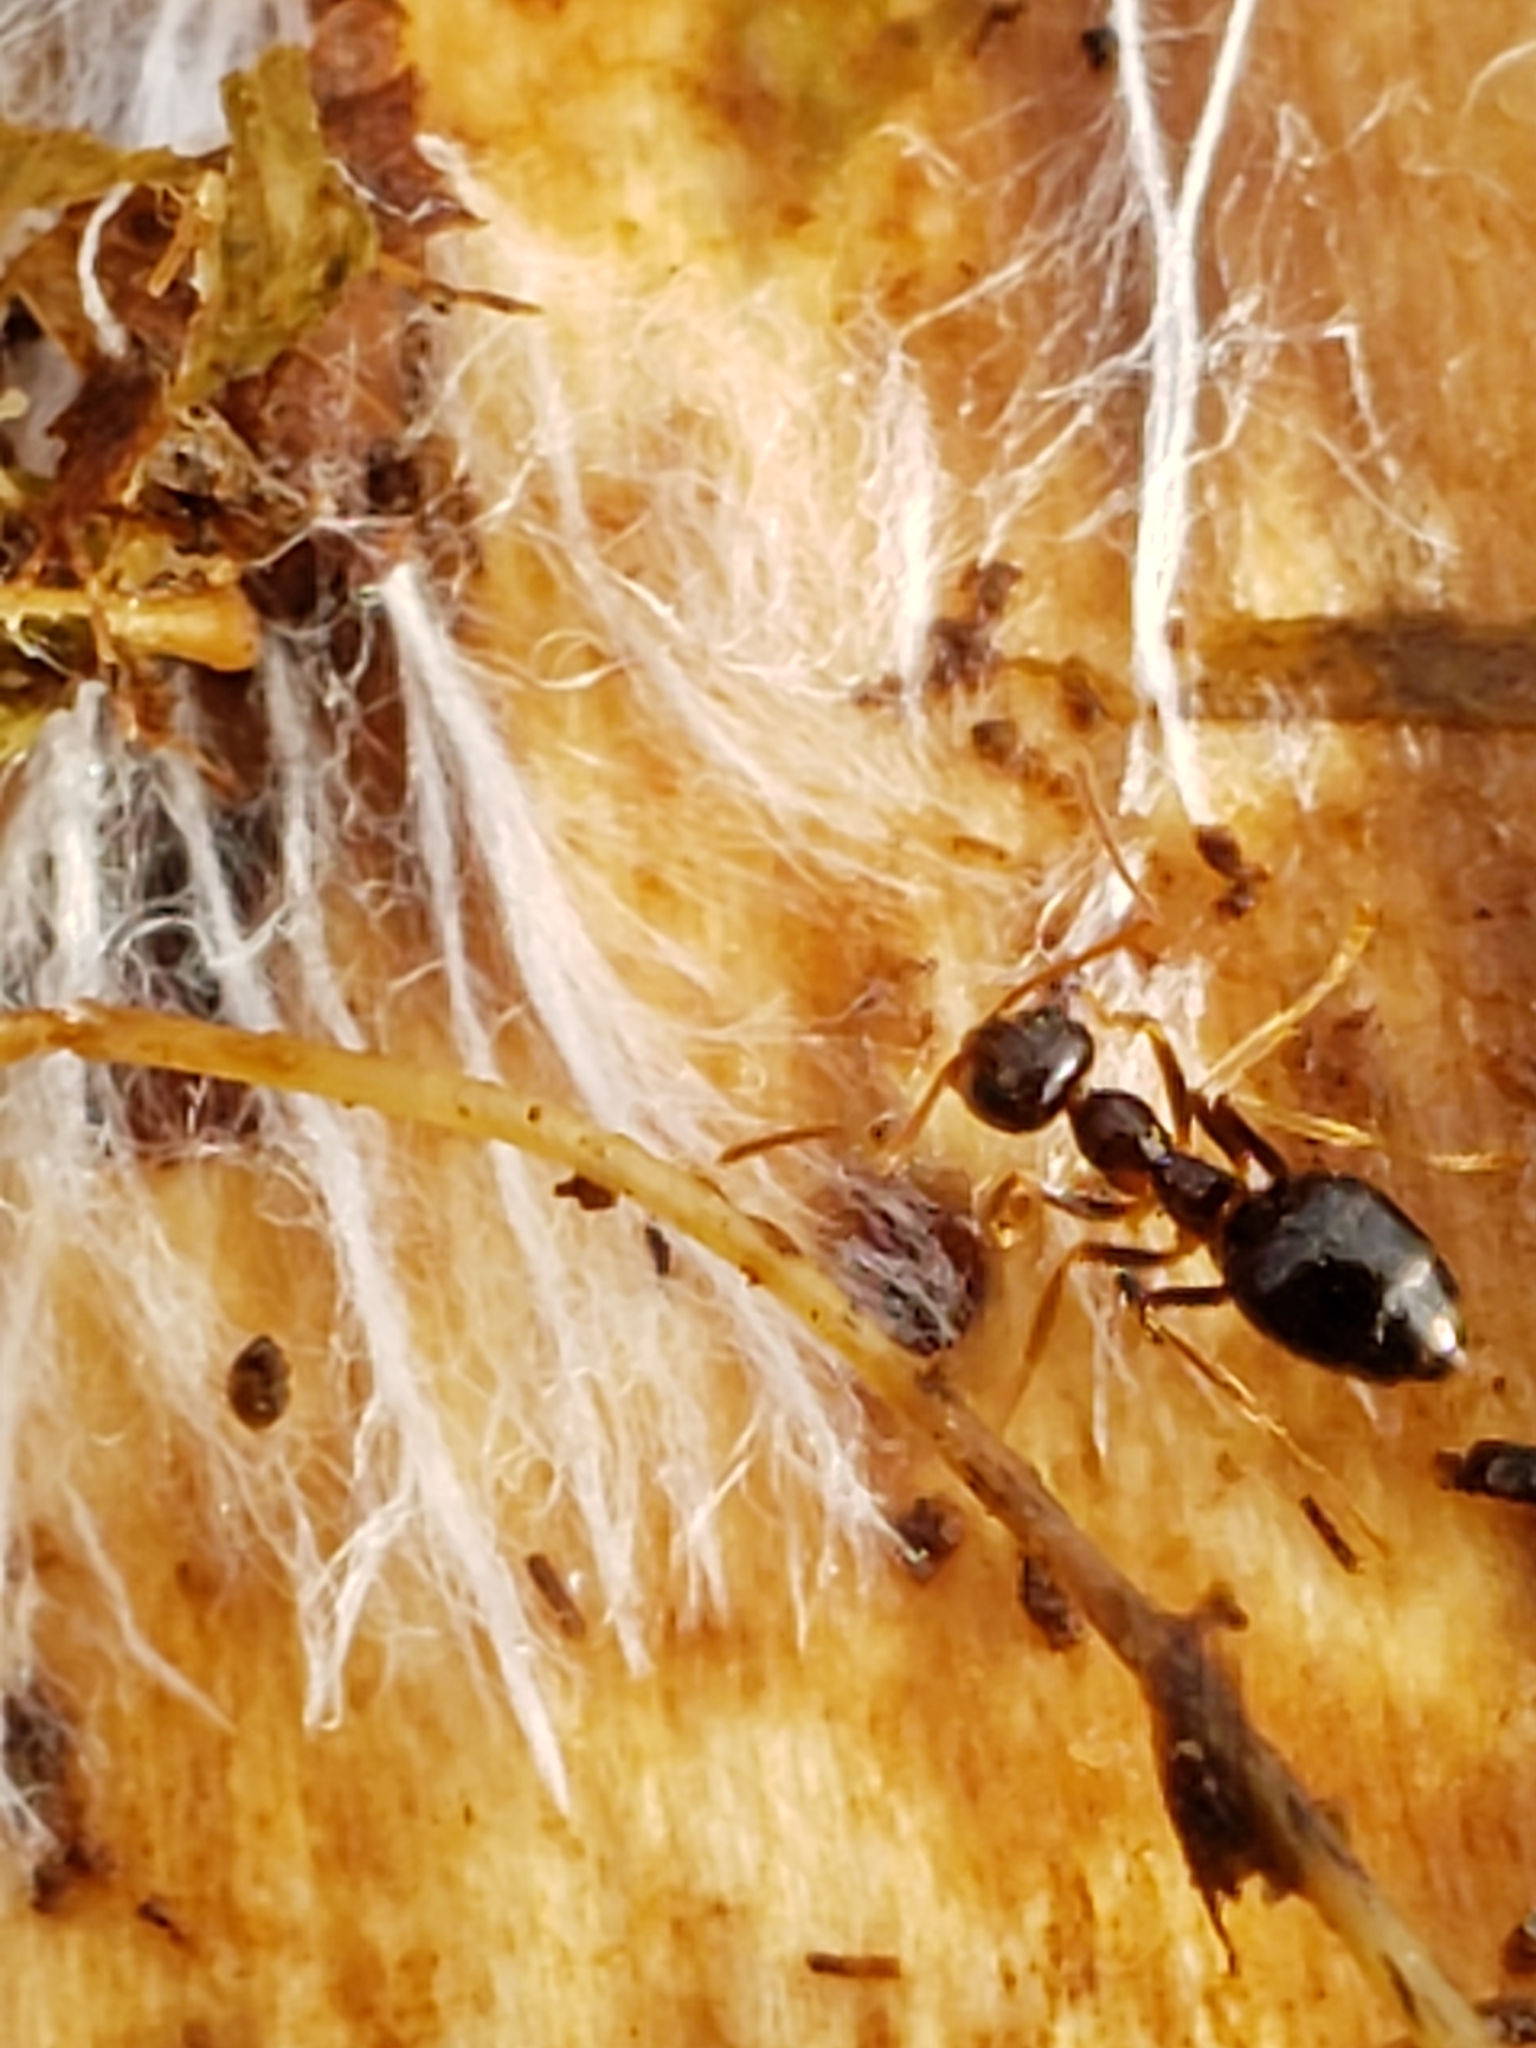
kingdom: Animalia
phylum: Arthropoda
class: Insecta
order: Hymenoptera
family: Formicidae
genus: Prenolepis
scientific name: Prenolepis imparis
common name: Small honey ant
